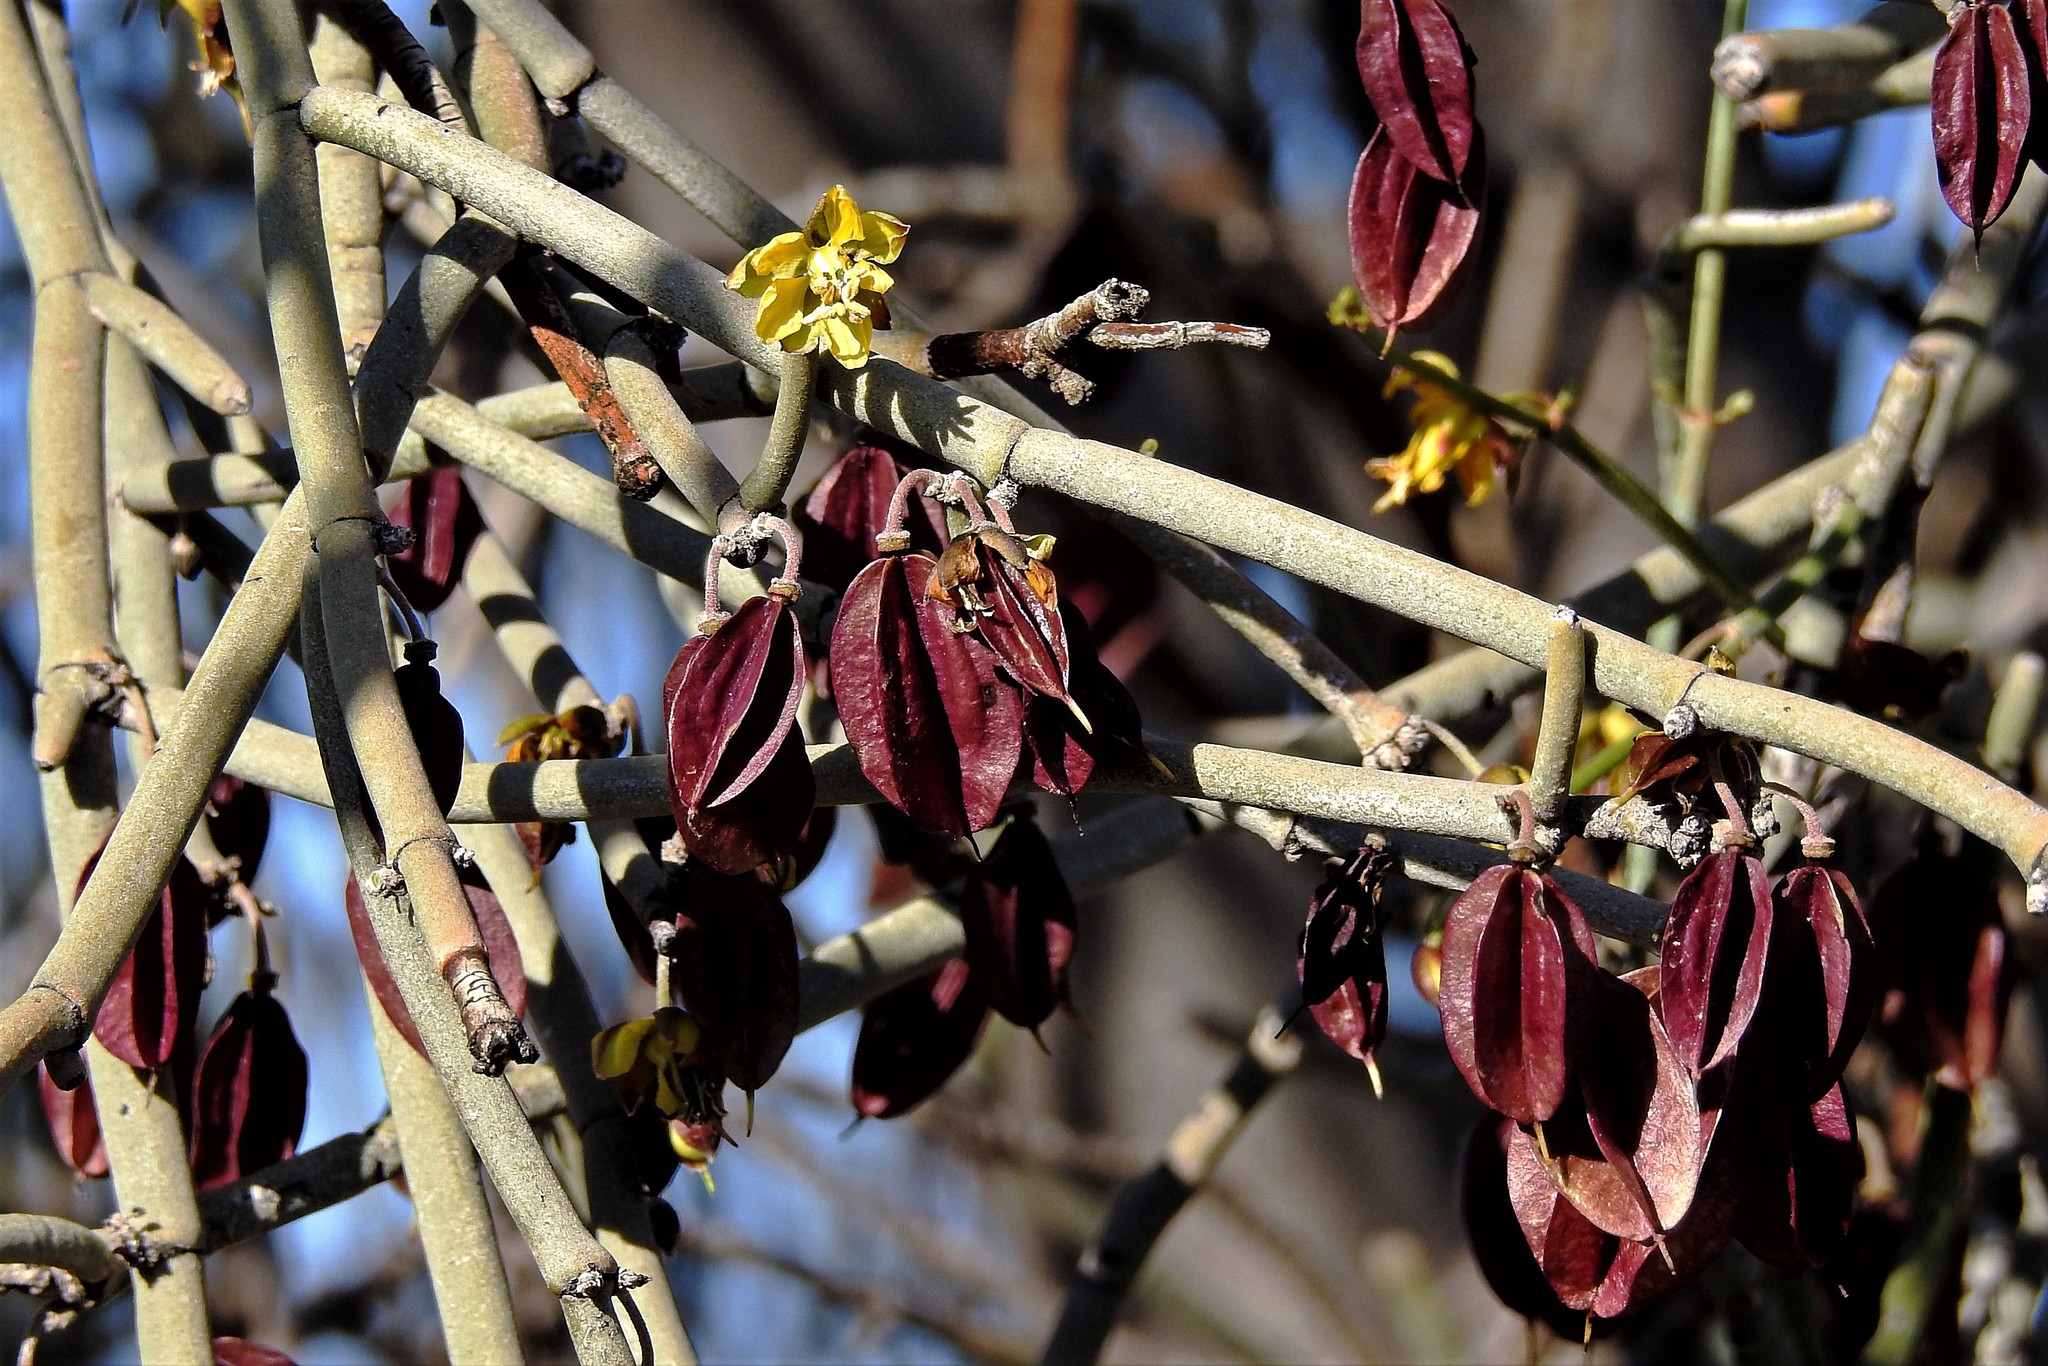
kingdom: Plantae
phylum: Tracheophyta
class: Magnoliopsida
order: Zygophyllales
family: Zygophyllaceae
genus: Bulnesia
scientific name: Bulnesia retama
